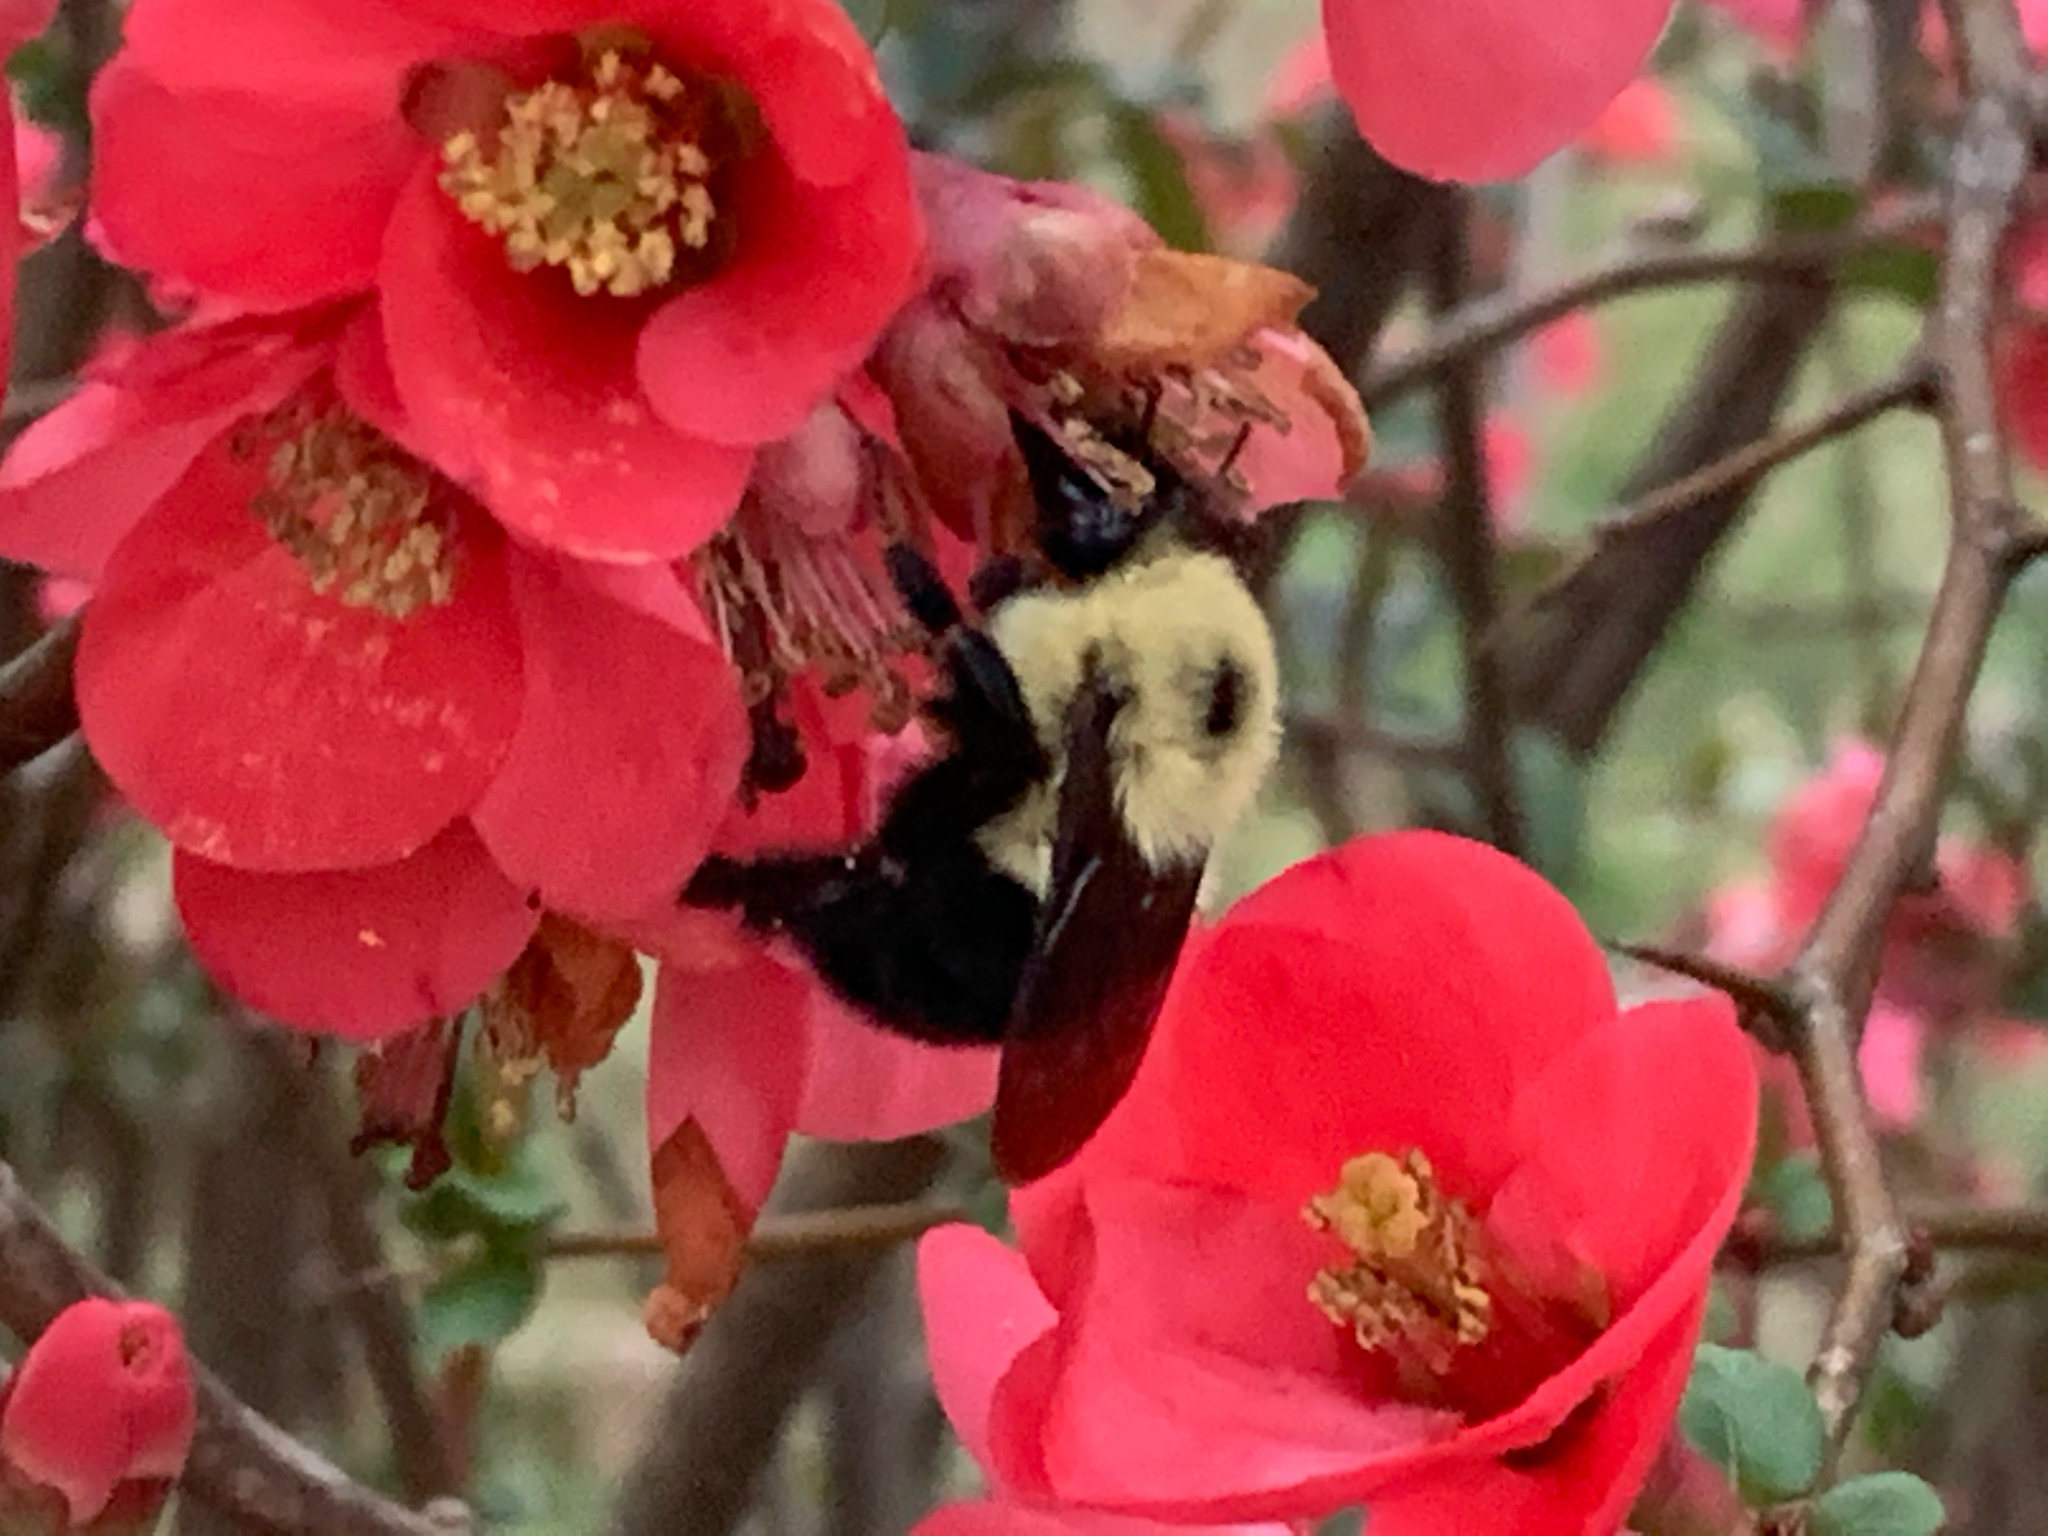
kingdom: Animalia
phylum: Arthropoda
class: Insecta
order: Hymenoptera
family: Apidae
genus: Bombus
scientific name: Bombus bimaculatus
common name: Two-spotted bumble bee
